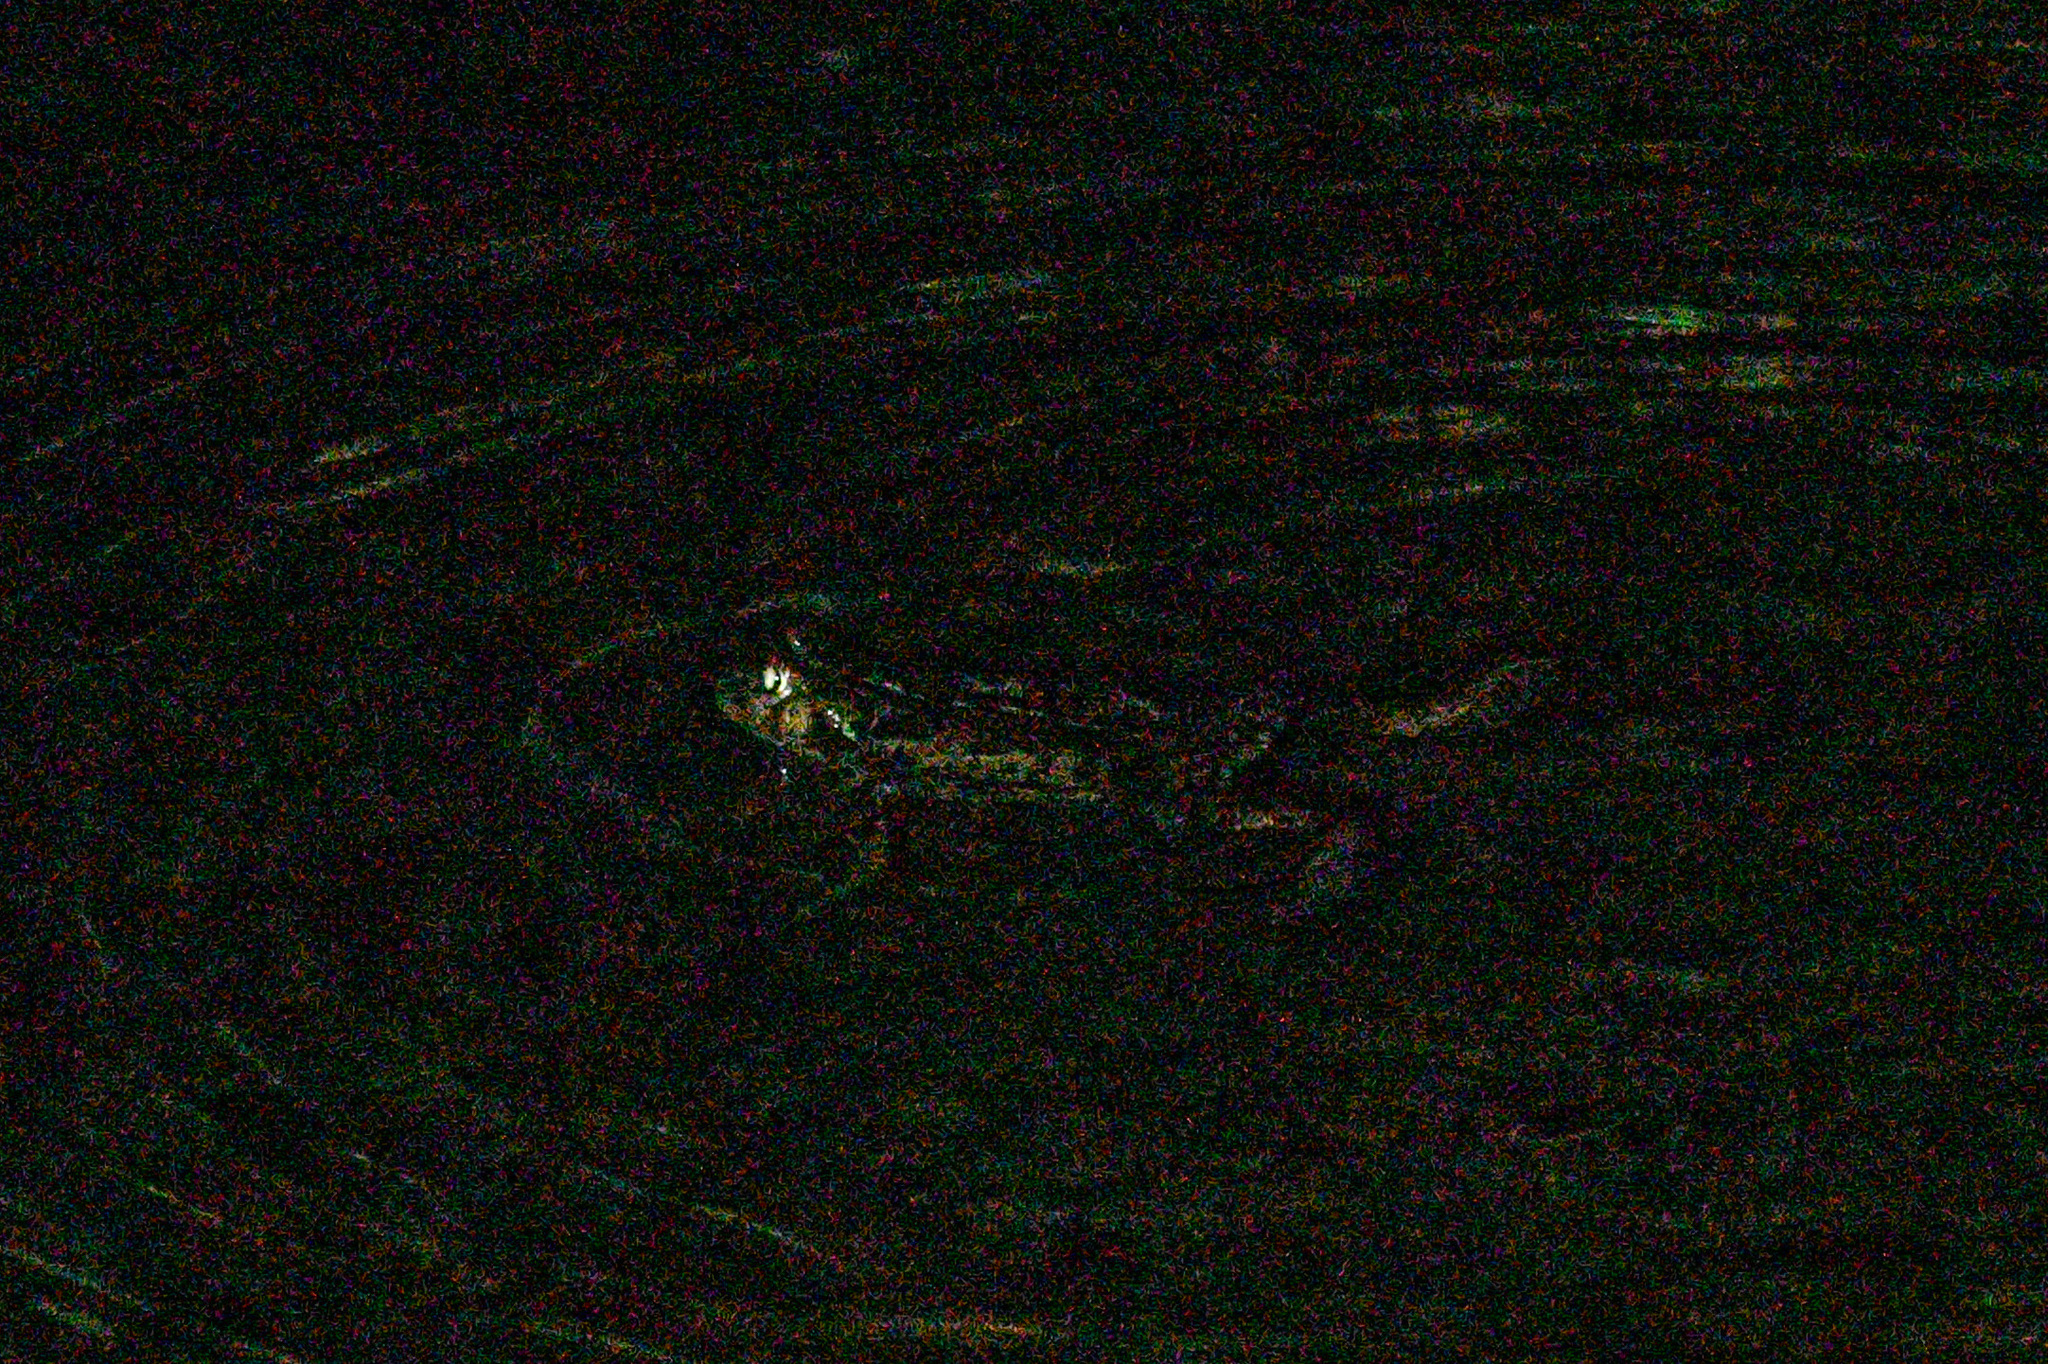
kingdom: Animalia
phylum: Chordata
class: Amphibia
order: Anura
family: Bufonidae
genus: Anaxyrus
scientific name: Anaxyrus boreas
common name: Western toad
